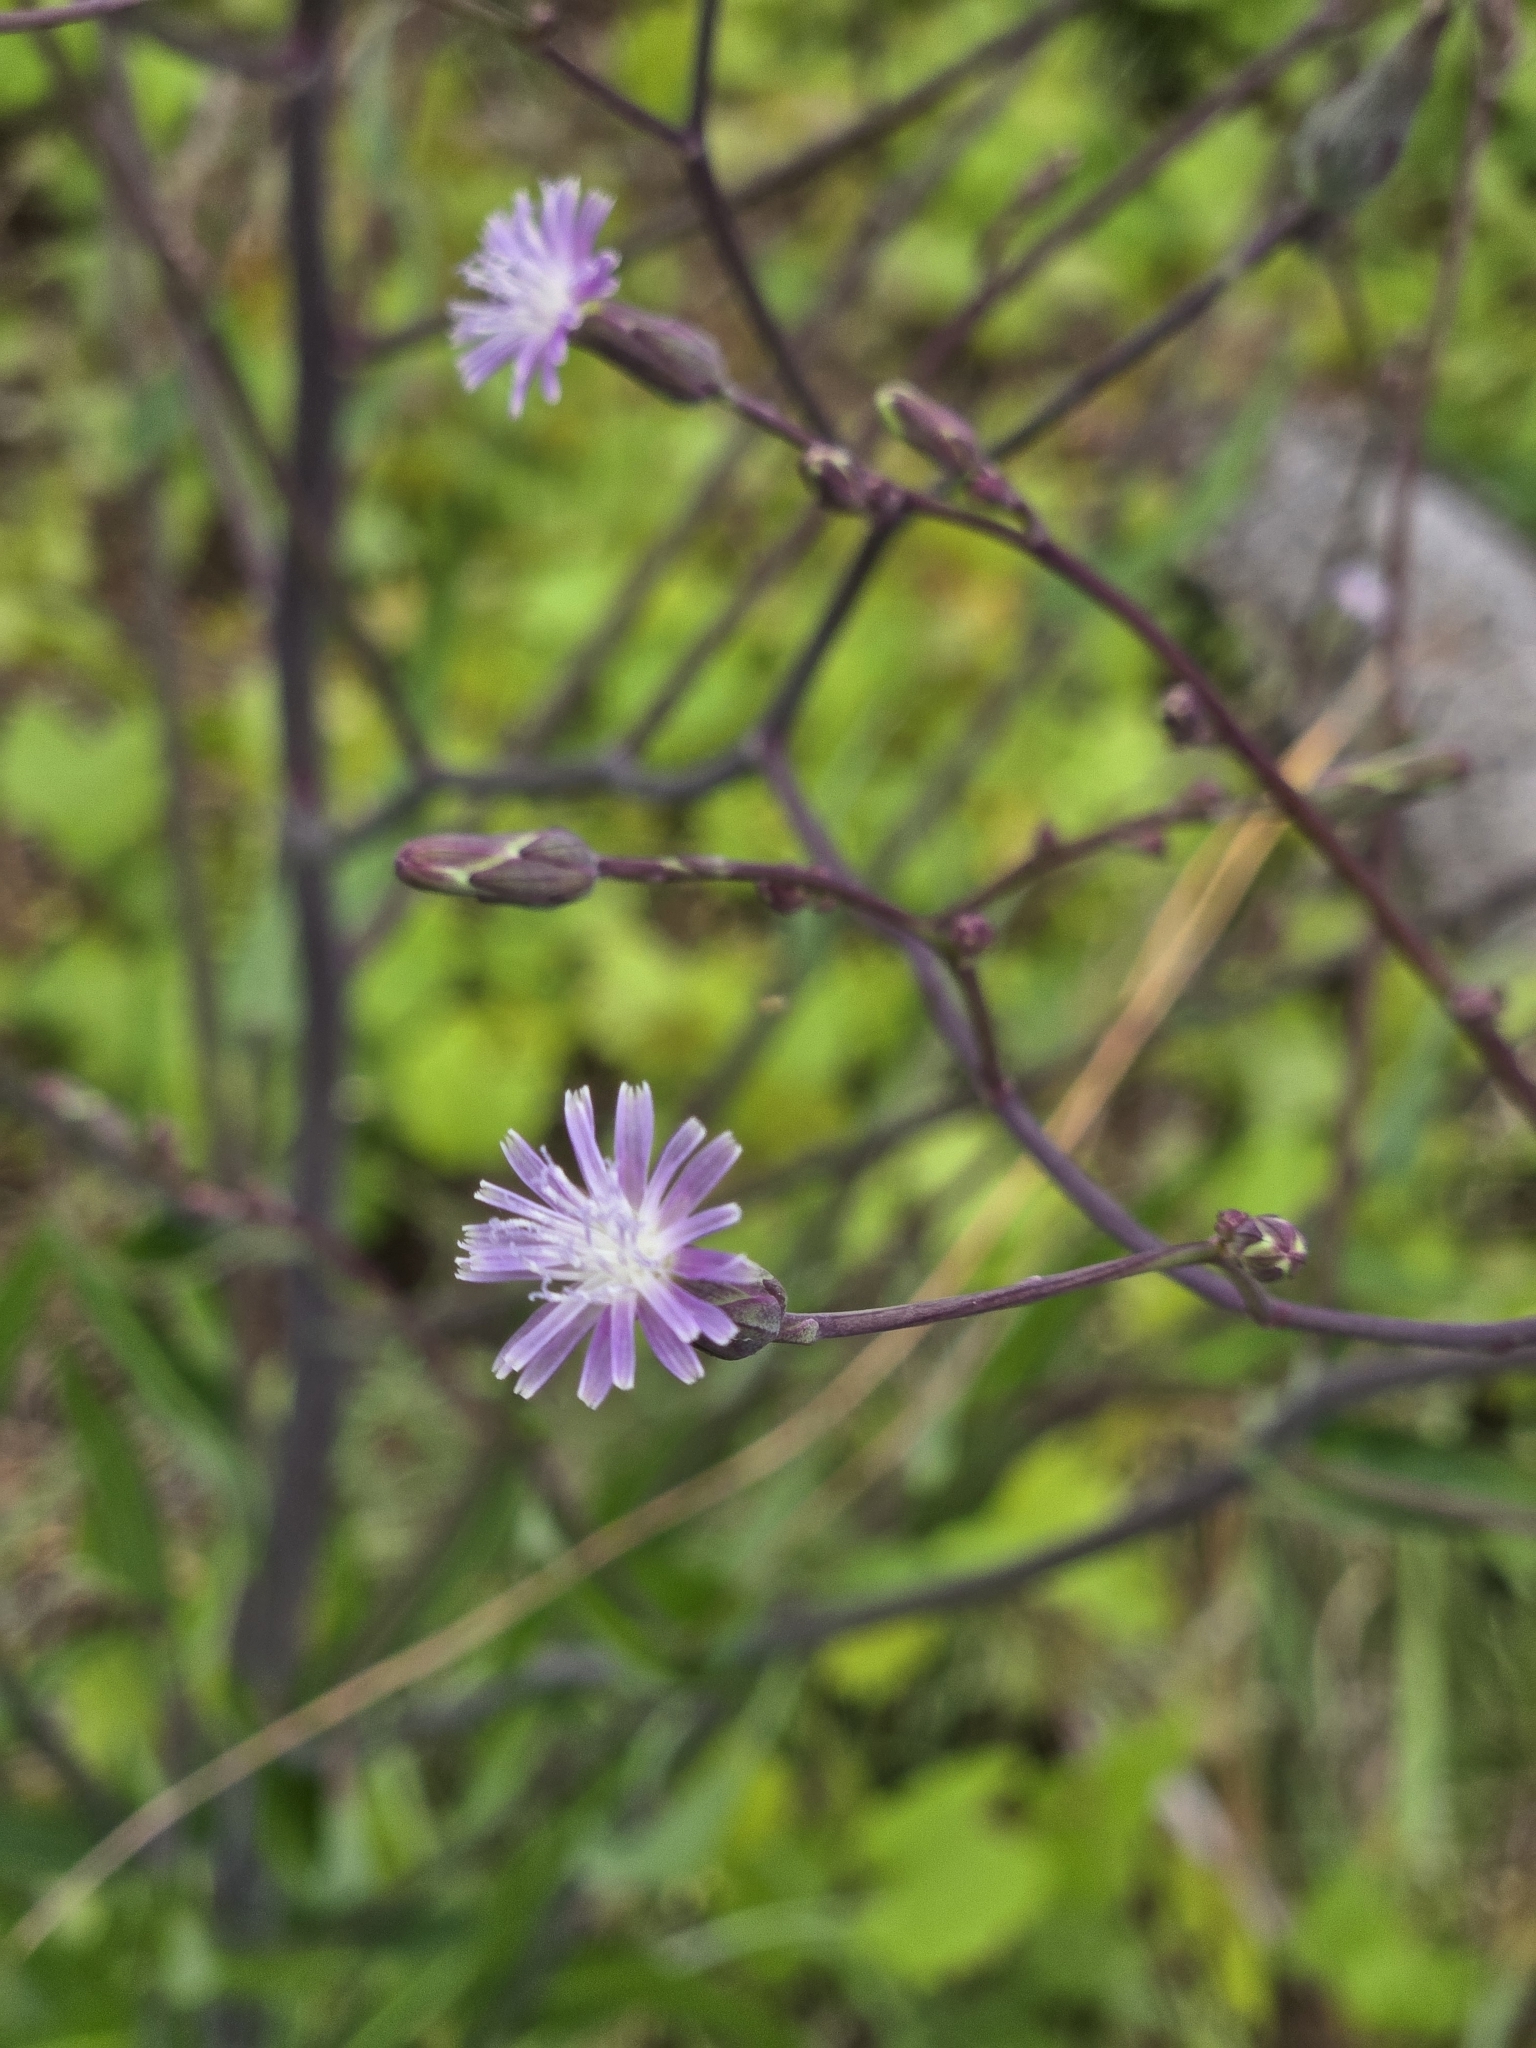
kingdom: Plantae
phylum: Tracheophyta
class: Magnoliopsida
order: Asterales
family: Asteraceae
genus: Lactuca
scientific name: Lactuca graminifolia
